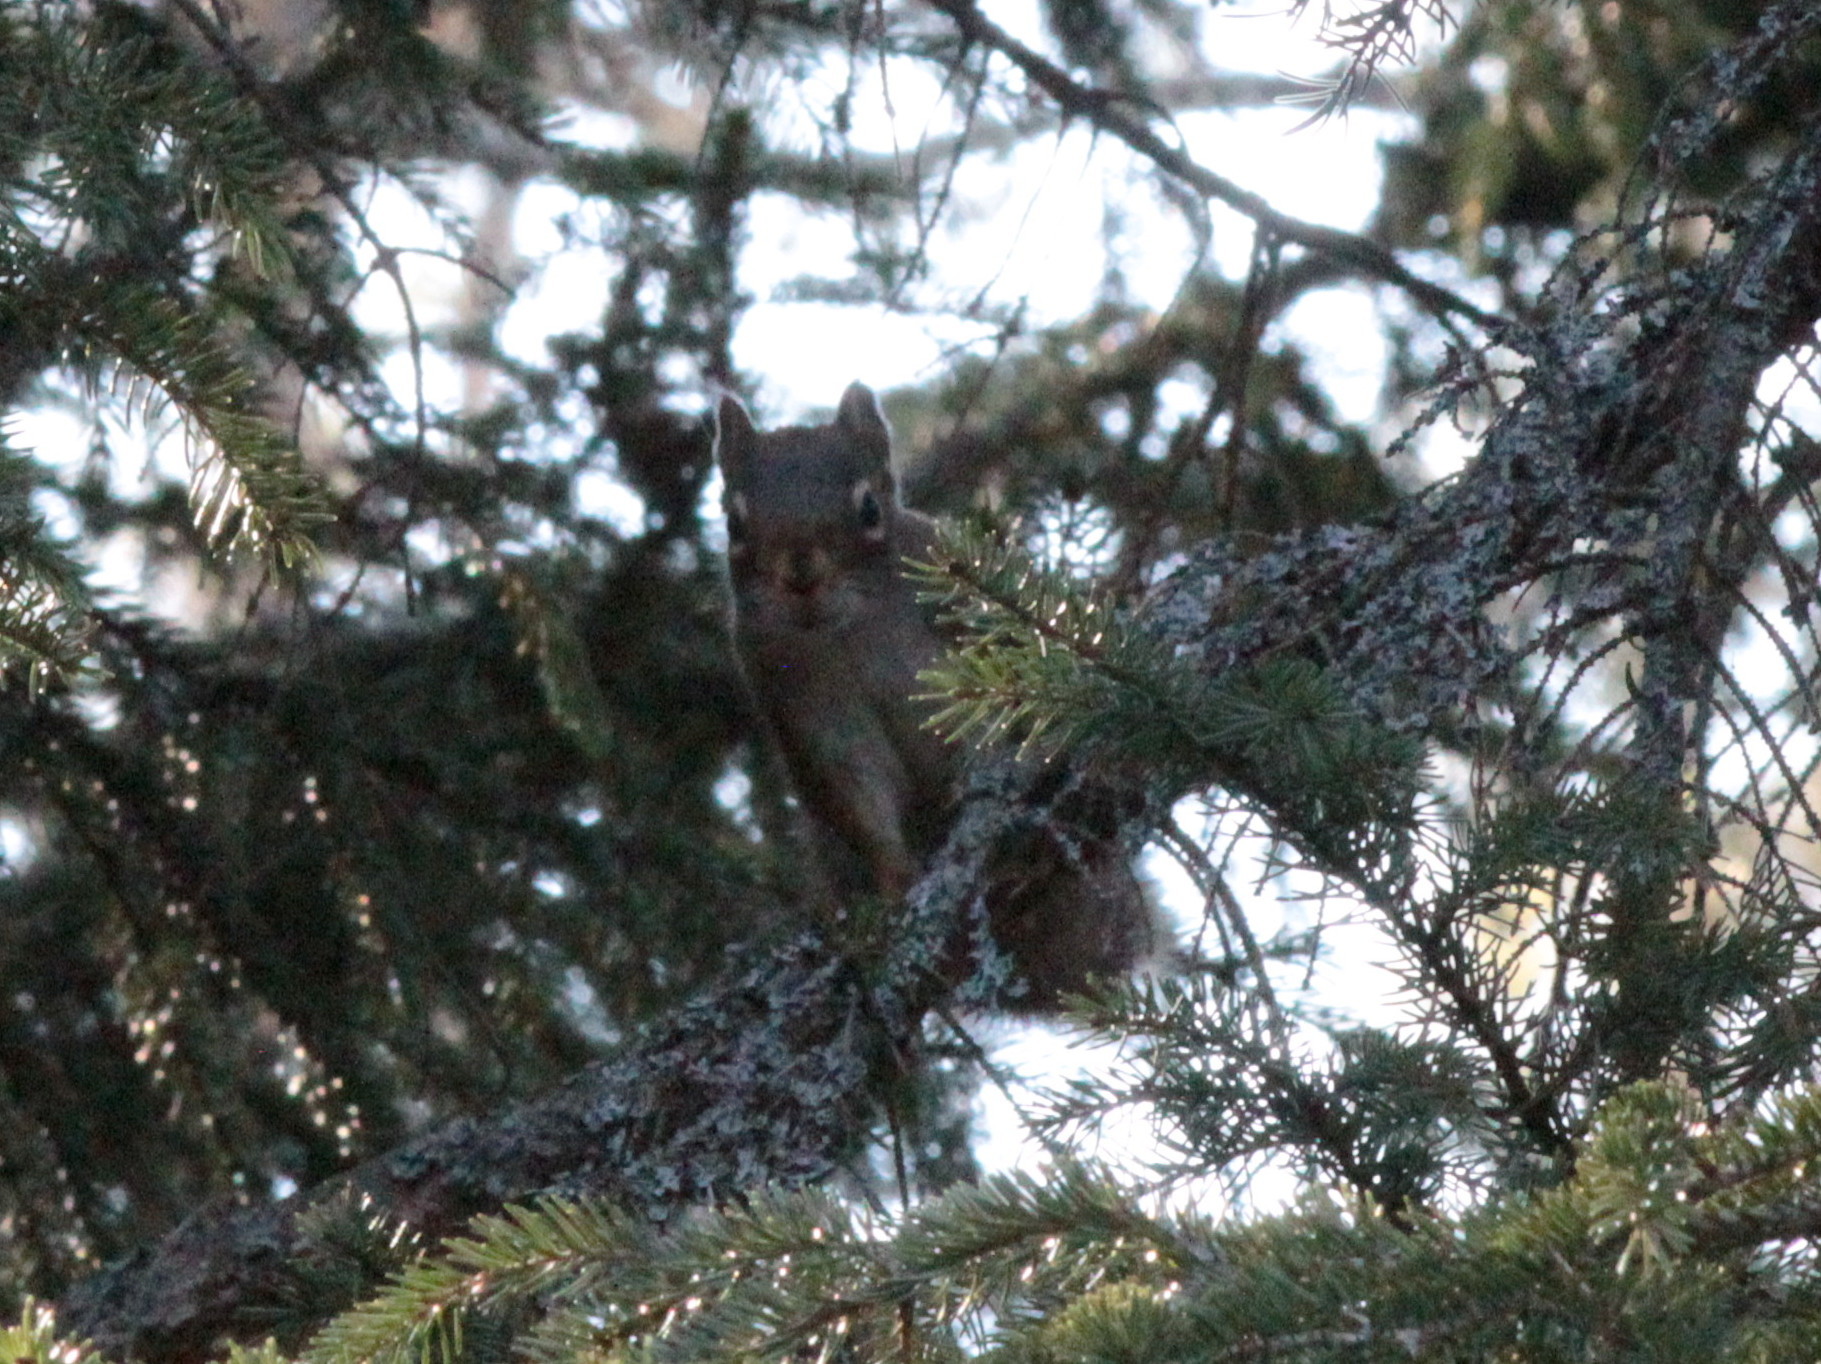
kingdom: Animalia
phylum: Chordata
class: Mammalia
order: Rodentia
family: Sciuridae
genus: Tamiasciurus
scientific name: Tamiasciurus hudsonicus
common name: Red squirrel
